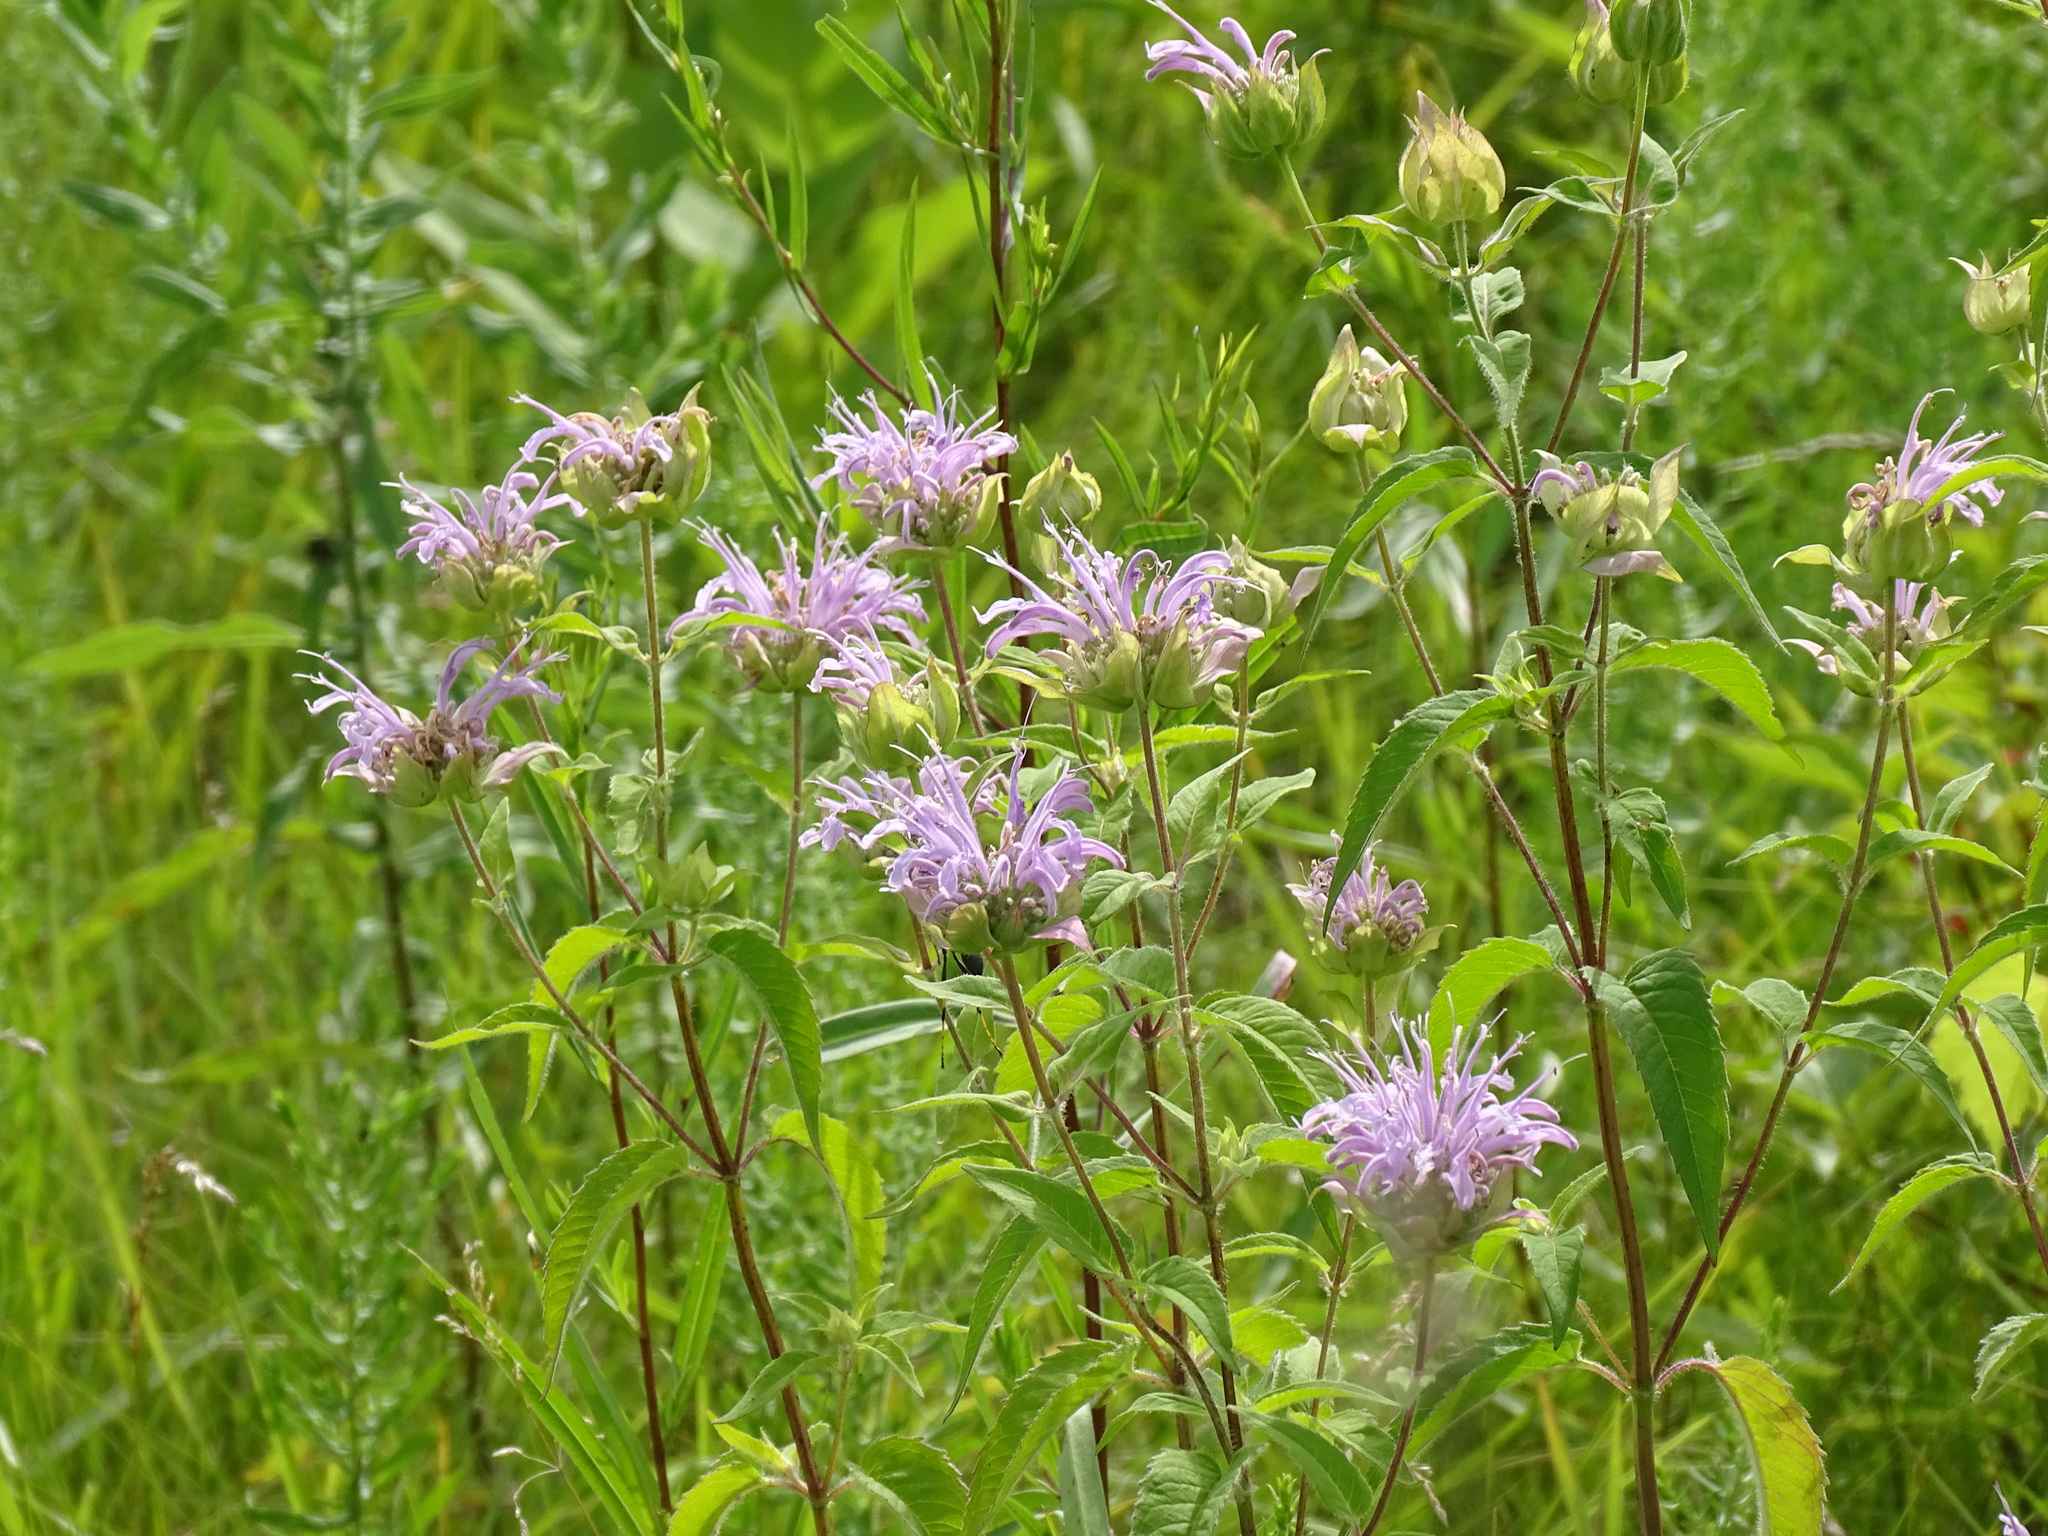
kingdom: Plantae
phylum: Tracheophyta
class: Magnoliopsida
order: Lamiales
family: Lamiaceae
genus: Monarda
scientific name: Monarda fistulosa
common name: Purple beebalm
